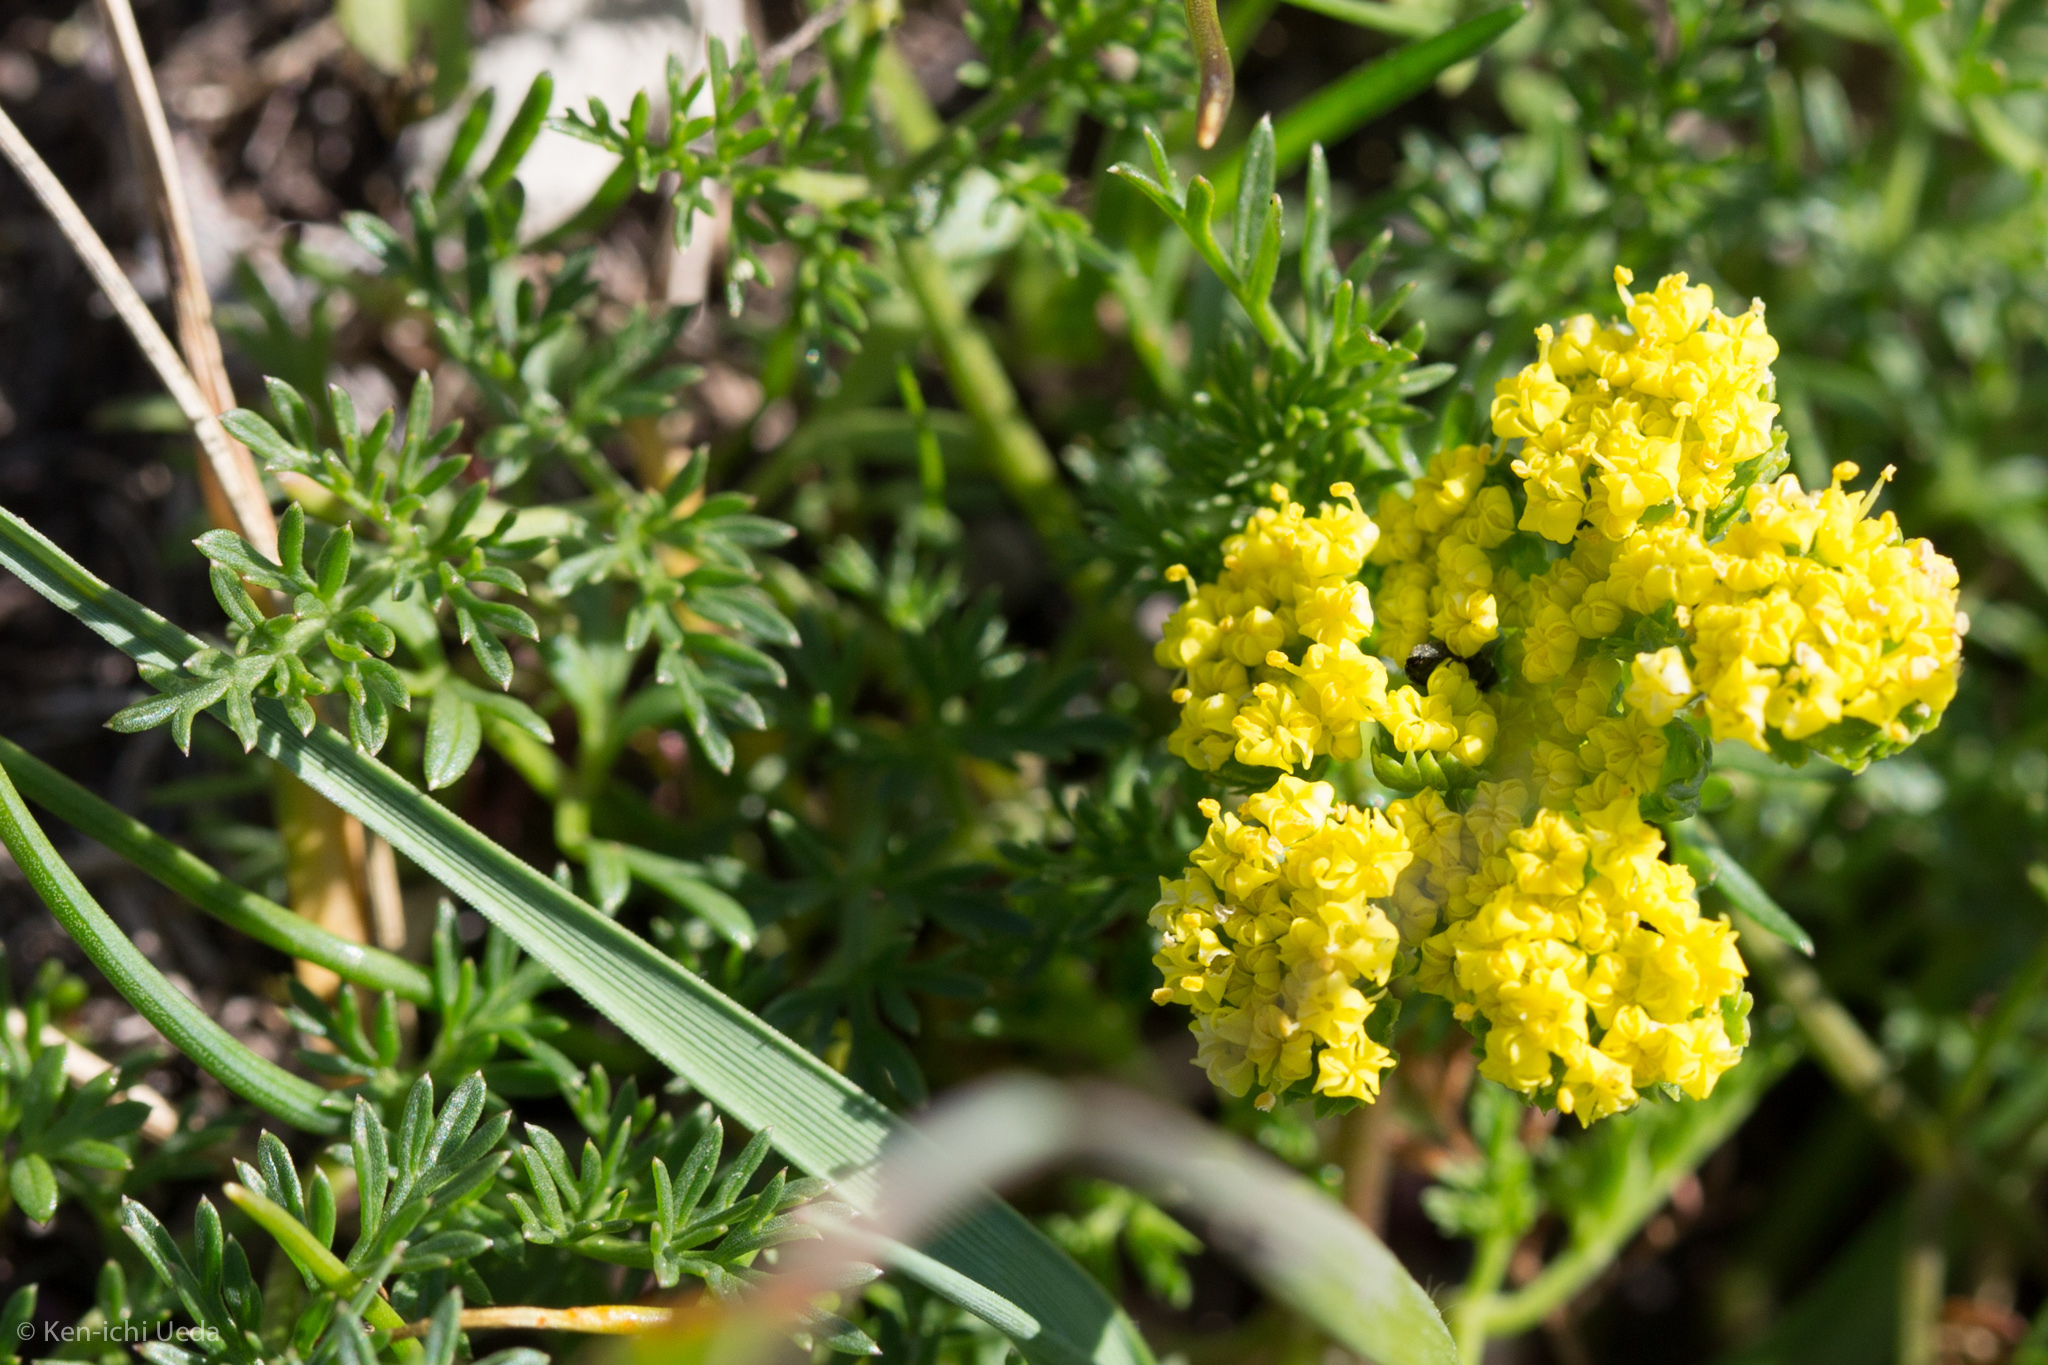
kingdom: Plantae
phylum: Tracheophyta
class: Magnoliopsida
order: Apiales
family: Apiaceae
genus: Lomatium
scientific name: Lomatium utriculatum
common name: Fine-leaf desert-parsley
